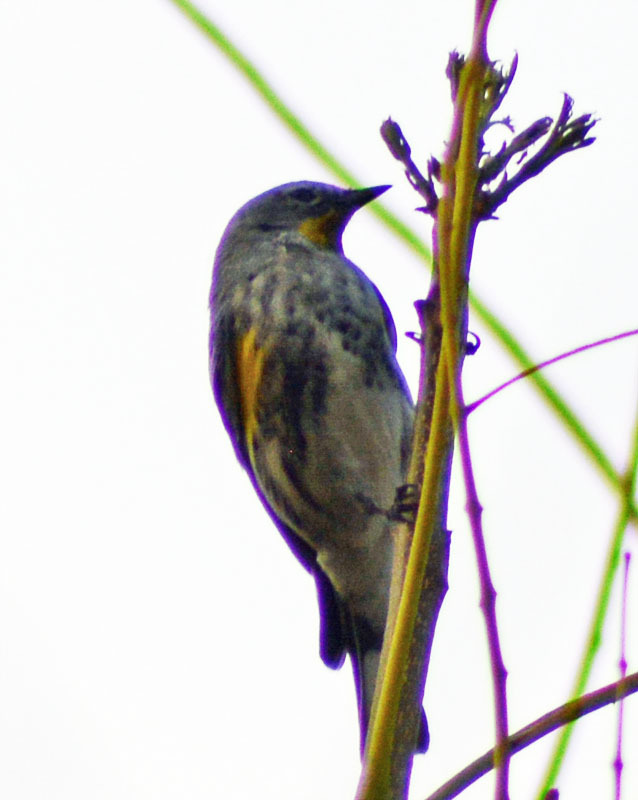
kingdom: Animalia
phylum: Chordata
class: Aves
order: Passeriformes
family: Parulidae
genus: Setophaga
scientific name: Setophaga coronata
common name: Myrtle warbler
